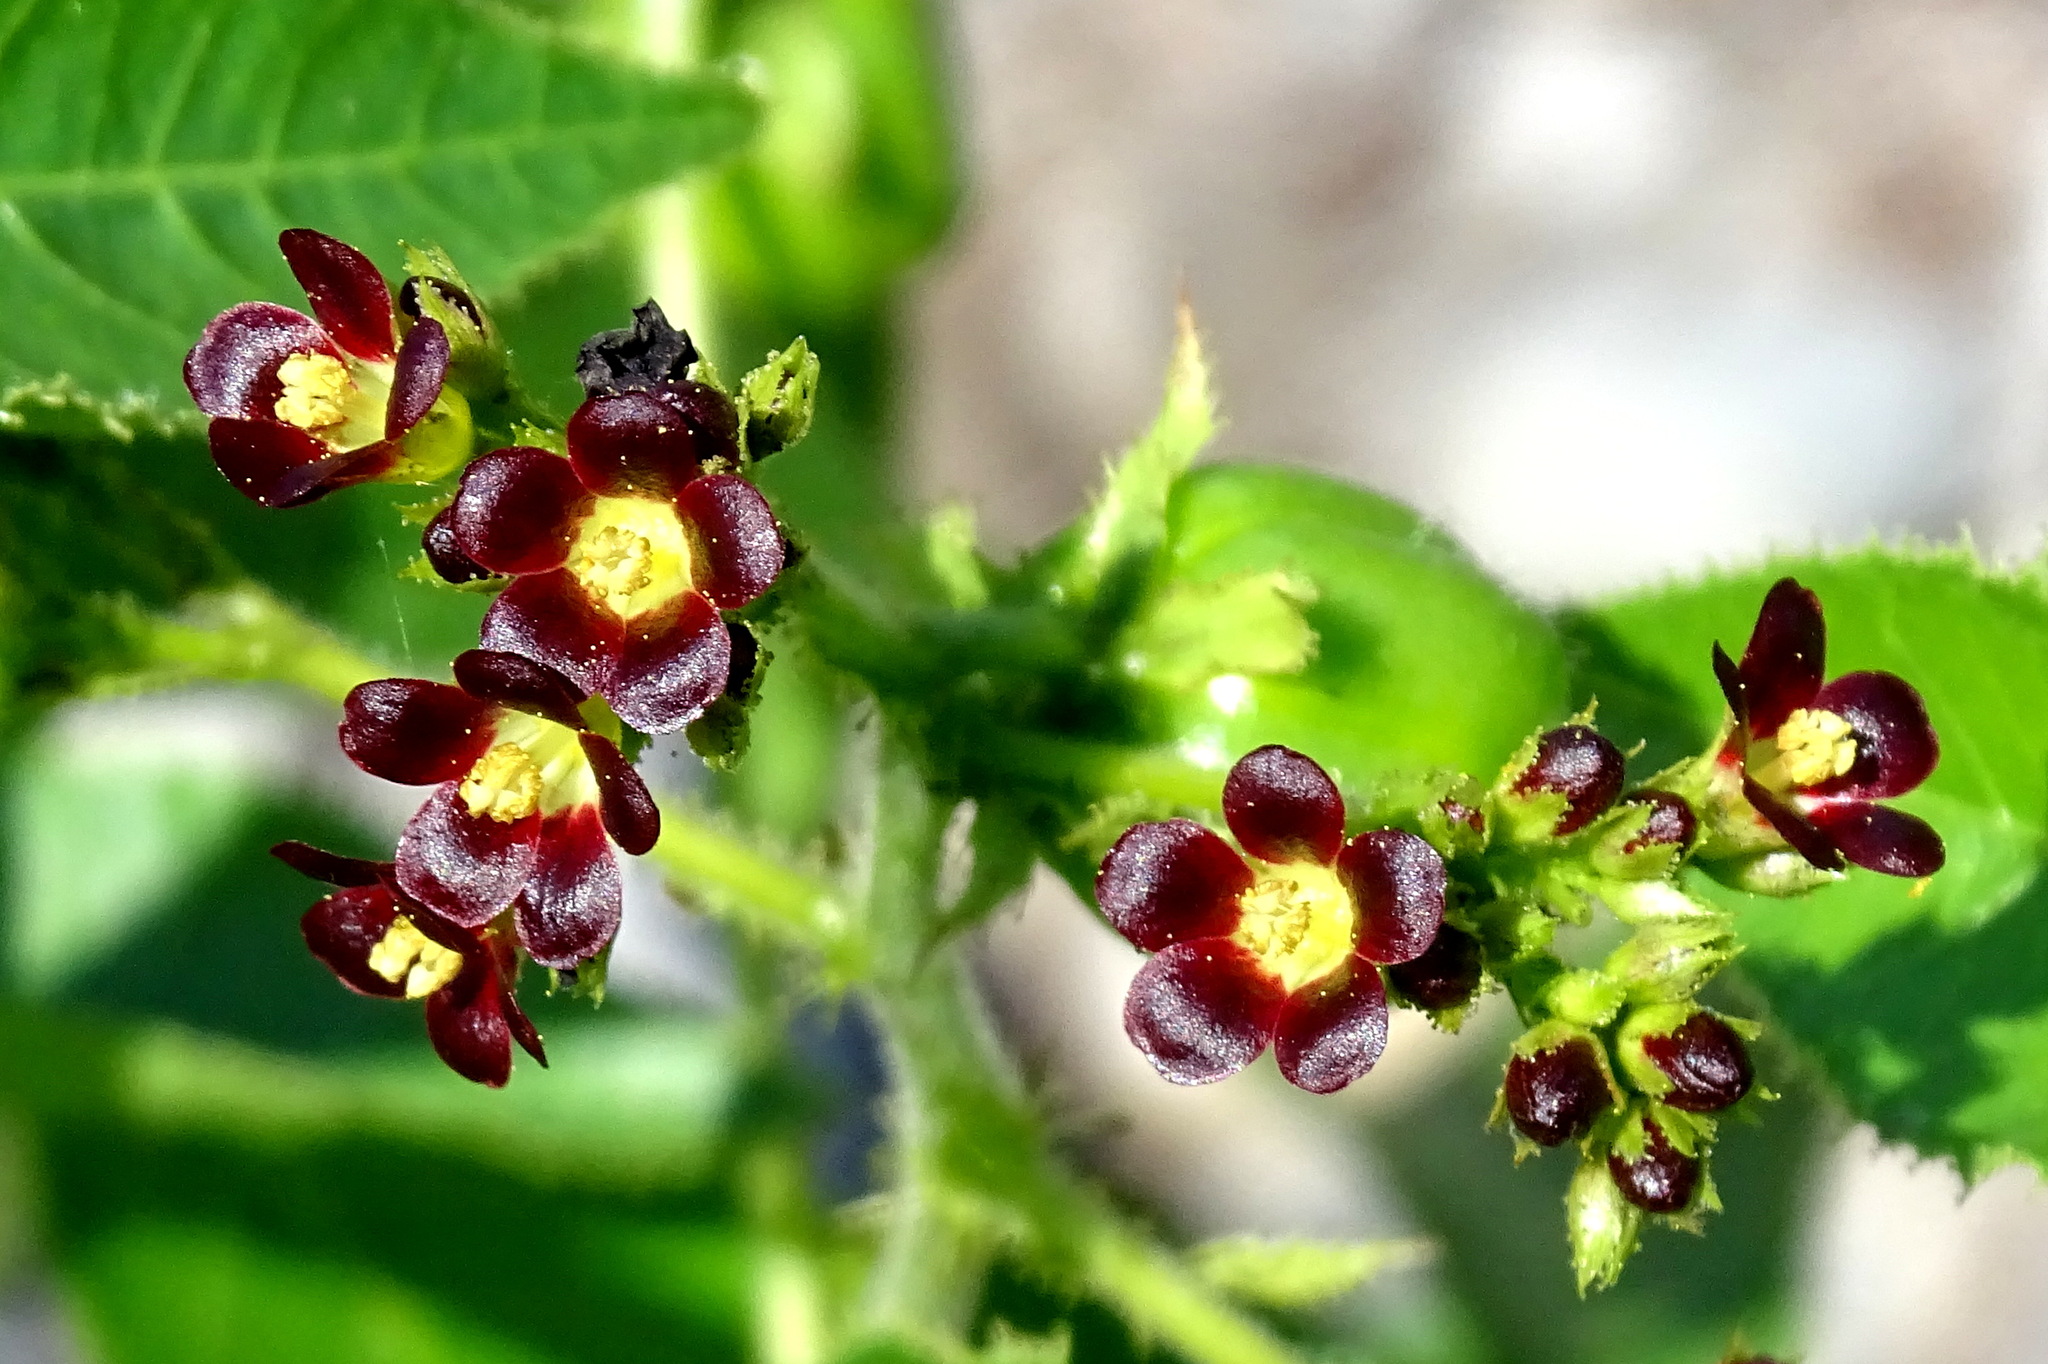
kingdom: Plantae
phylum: Tracheophyta
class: Magnoliopsida
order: Malpighiales
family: Euphorbiaceae
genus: Jatropha
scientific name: Jatropha gossypiifolia
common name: Bellyache bush
